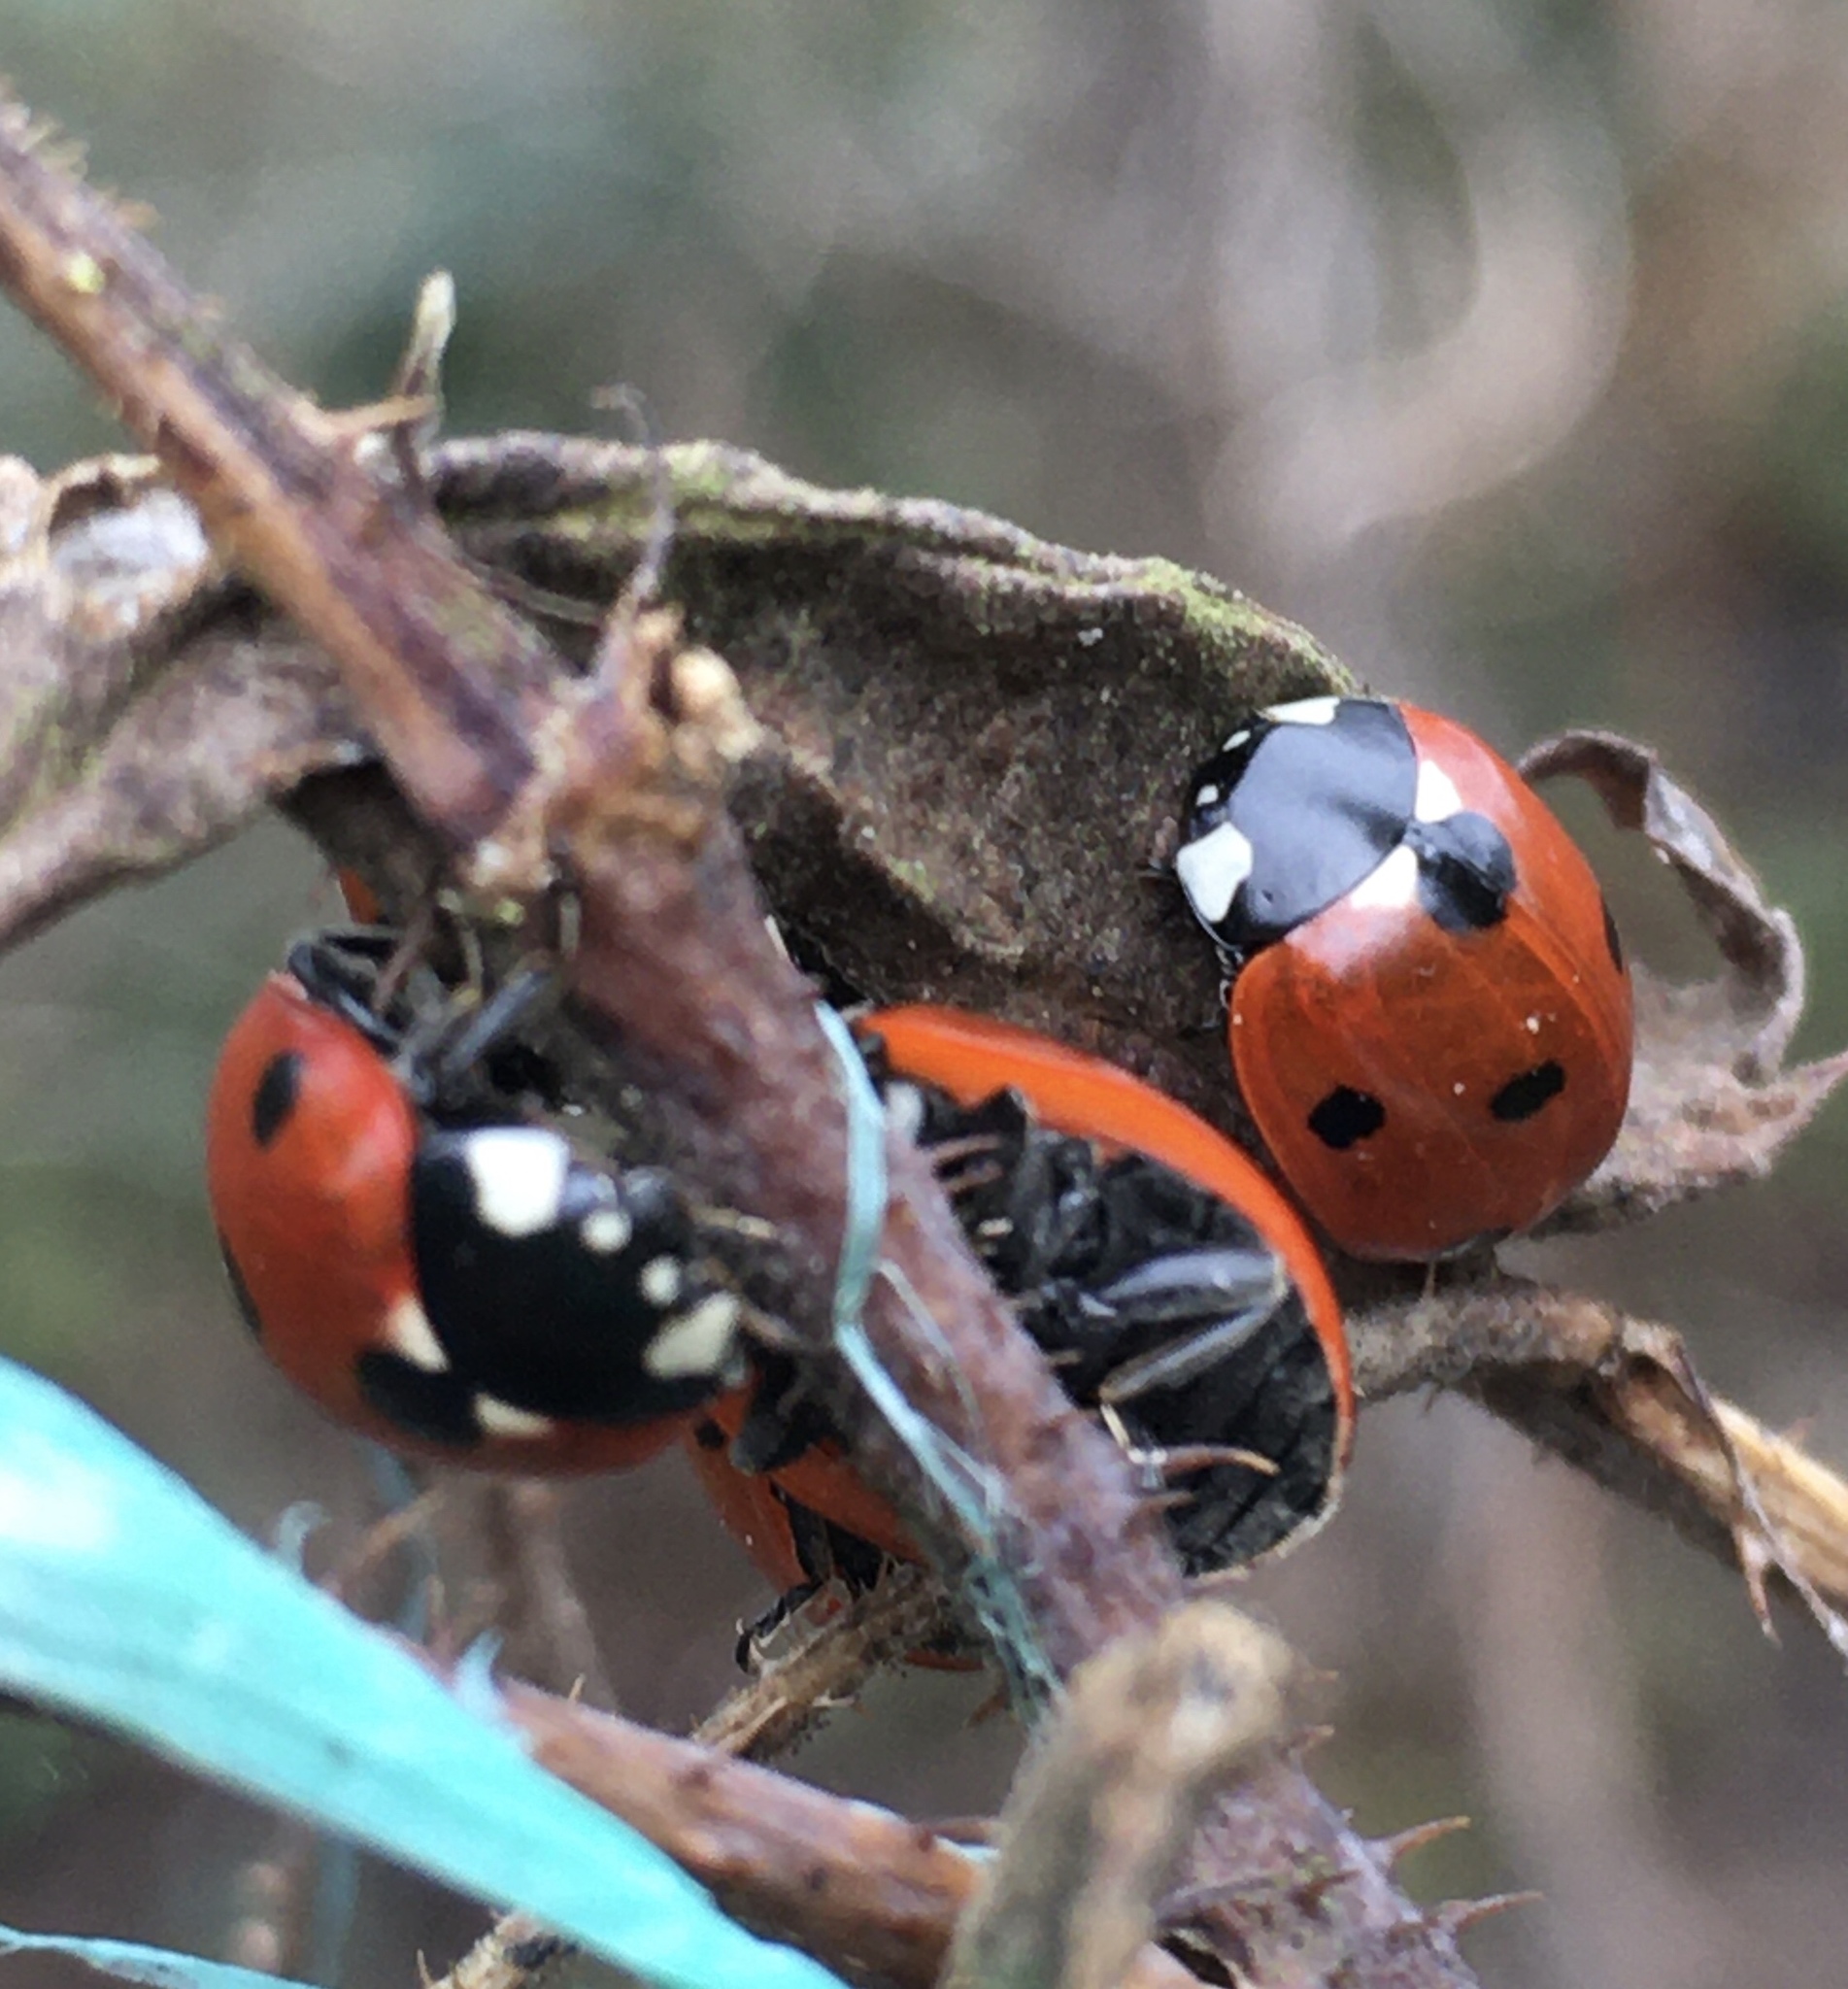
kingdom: Animalia
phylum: Arthropoda
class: Insecta
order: Coleoptera
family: Coccinellidae
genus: Coccinella
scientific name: Coccinella septempunctata
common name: Sevenspotted lady beetle
